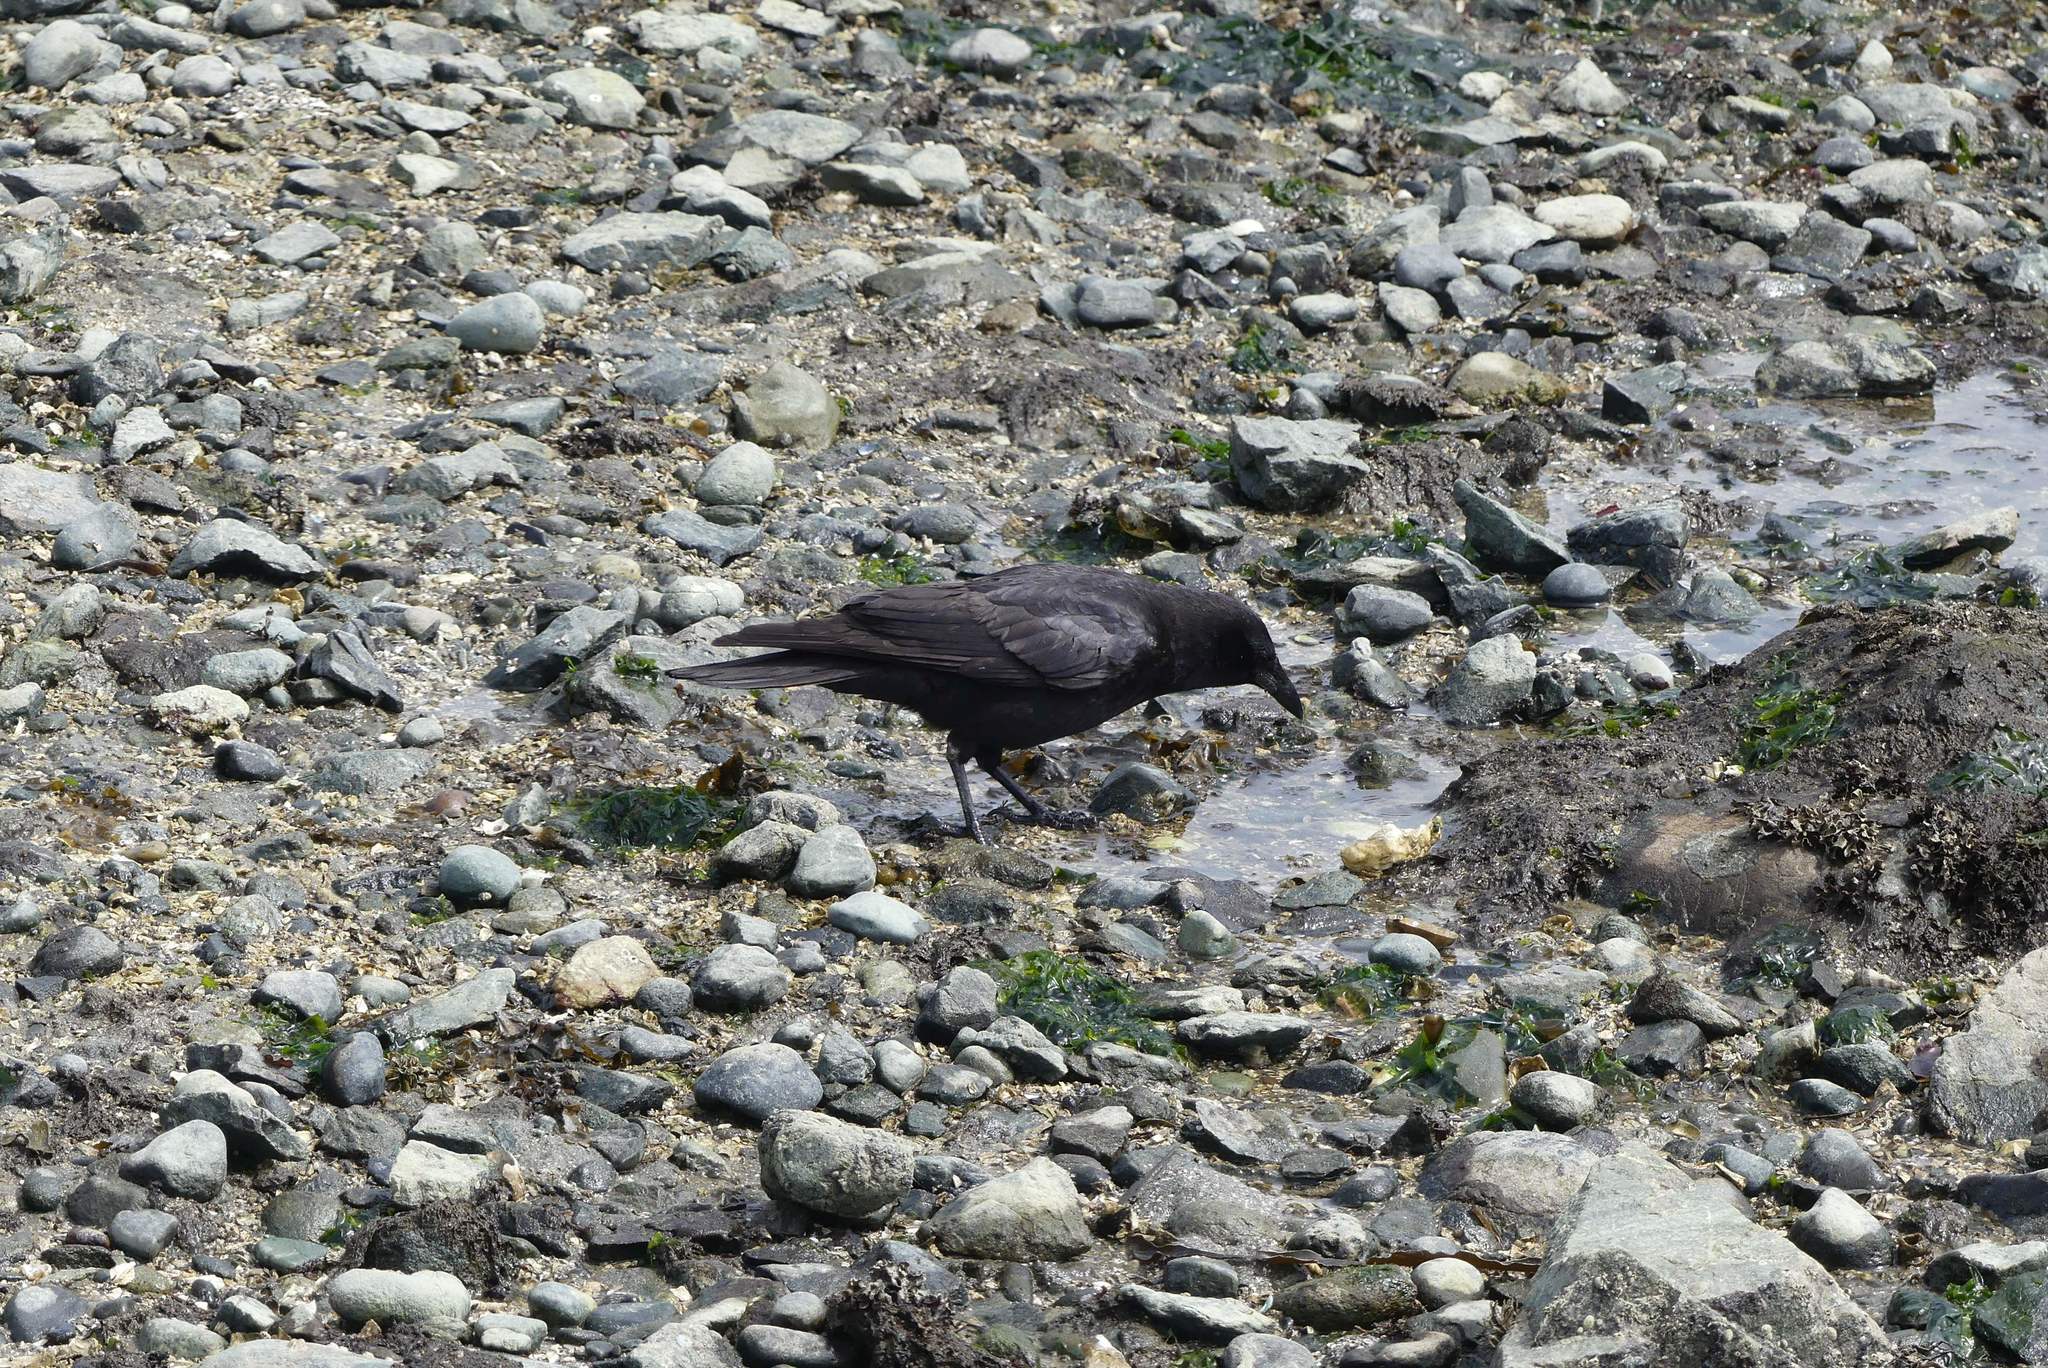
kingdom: Animalia
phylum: Chordata
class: Aves
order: Passeriformes
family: Corvidae
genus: Corvus
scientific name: Corvus brachyrhynchos
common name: American crow
